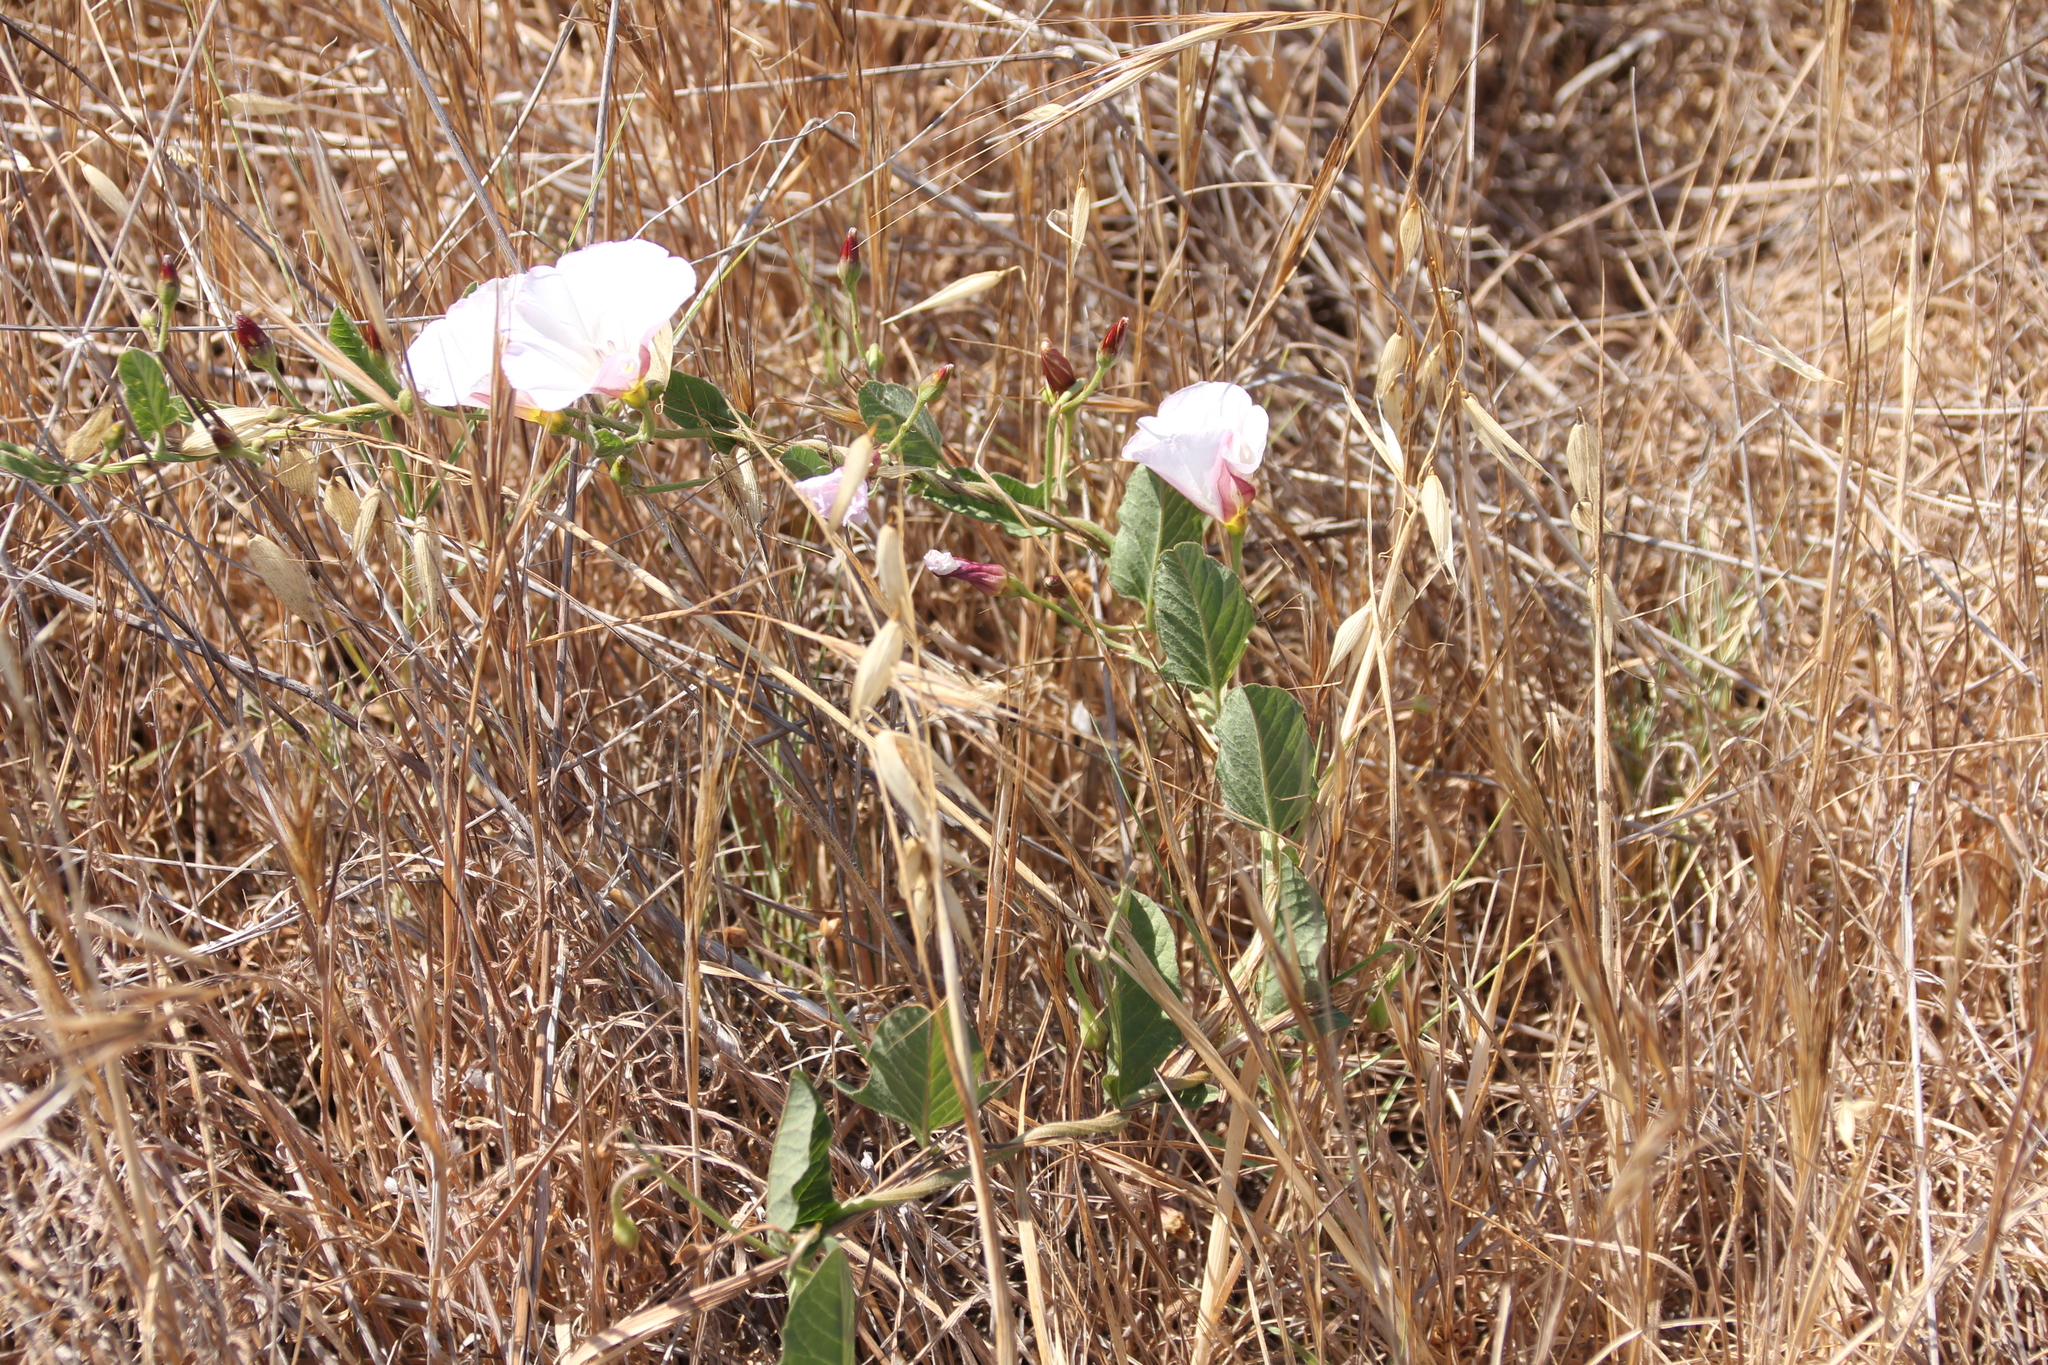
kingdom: Plantae
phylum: Tracheophyta
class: Magnoliopsida
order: Solanales
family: Convolvulaceae
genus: Convolvulus
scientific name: Convolvulus arvensis
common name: Field bindweed
